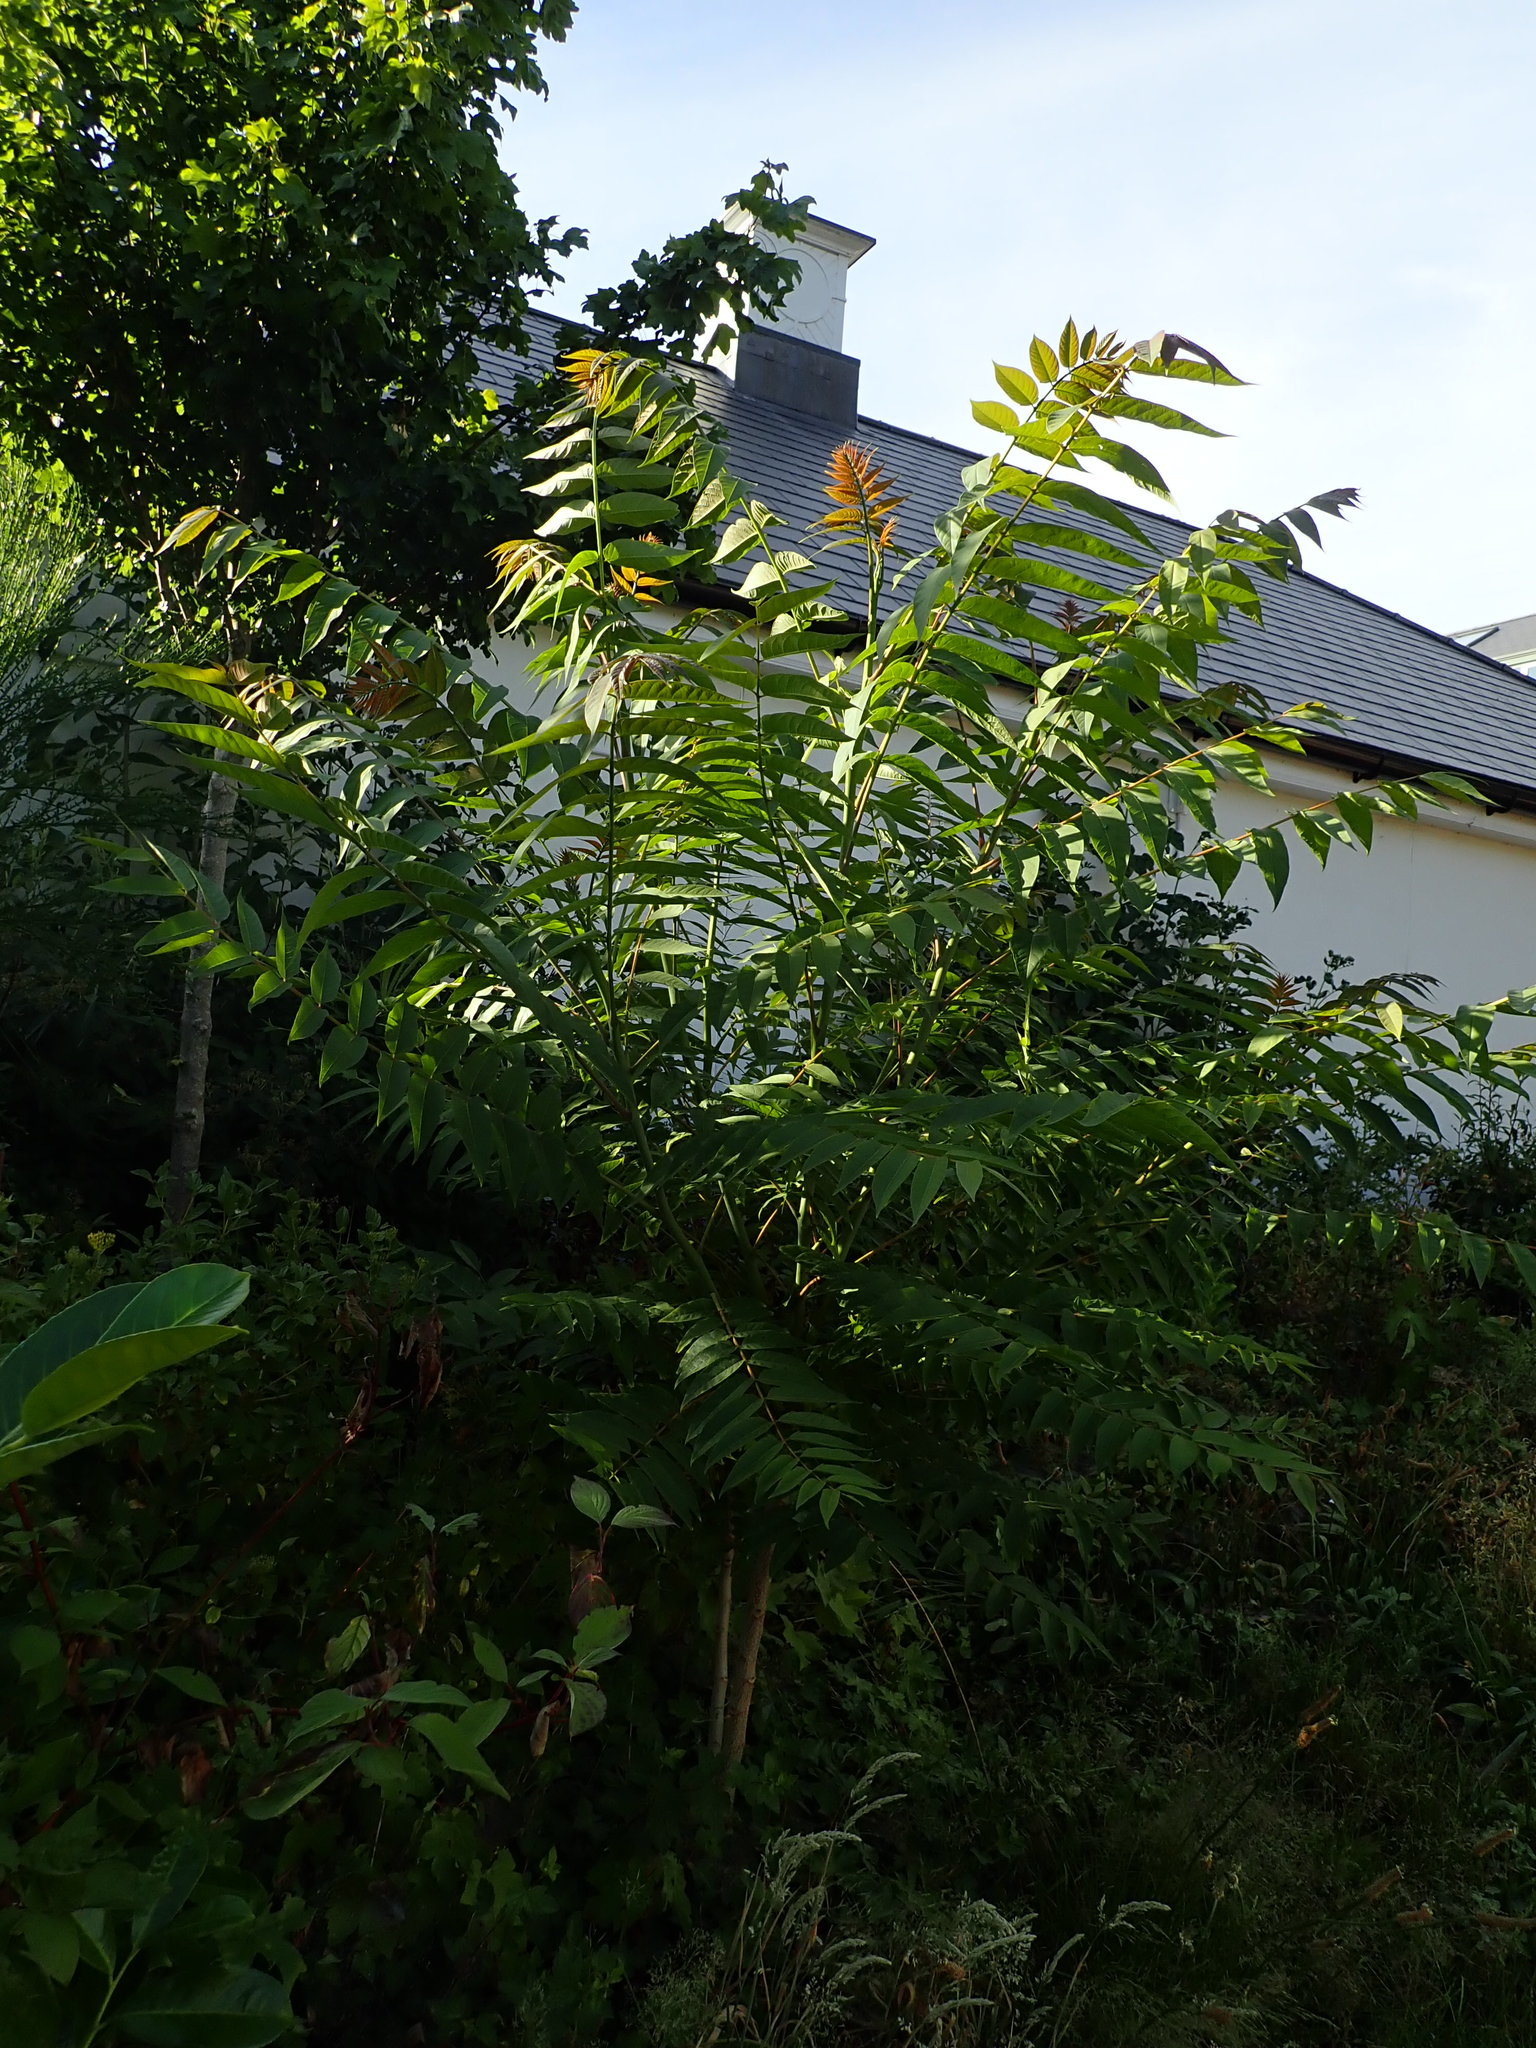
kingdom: Plantae
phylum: Tracheophyta
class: Magnoliopsida
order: Sapindales
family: Simaroubaceae
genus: Ailanthus
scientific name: Ailanthus altissima
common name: Tree-of-heaven
